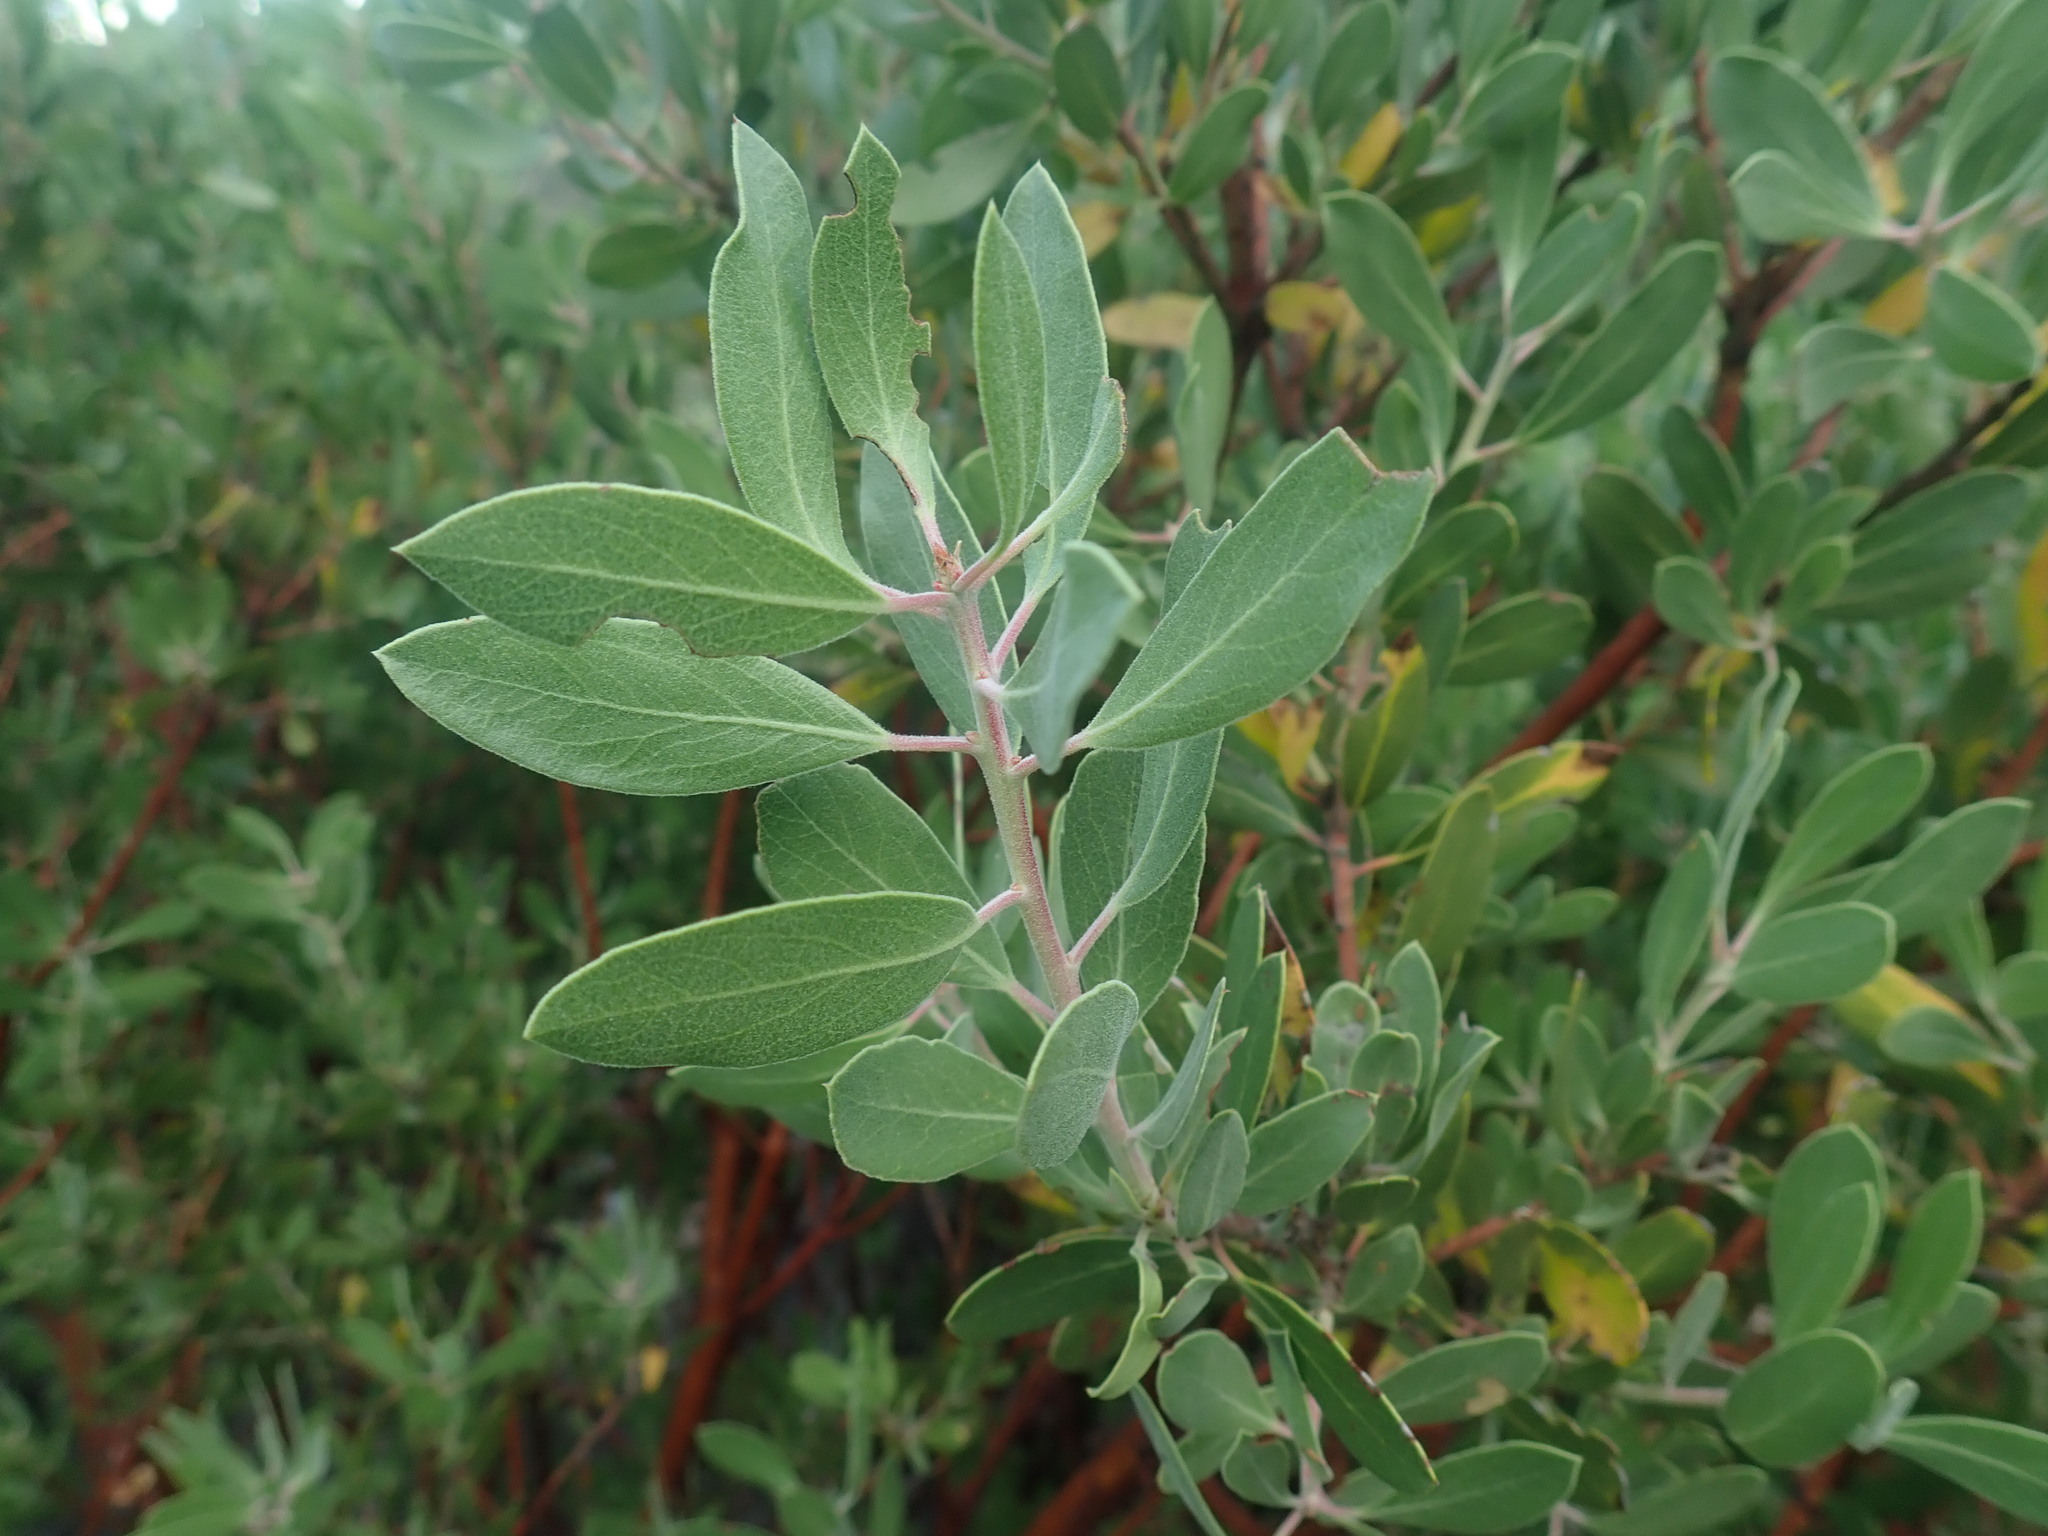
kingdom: Plantae
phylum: Tracheophyta
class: Magnoliopsida
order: Ericales
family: Ericaceae
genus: Arctostaphylos
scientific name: Arctostaphylos pungens
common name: Mexican manzanita
